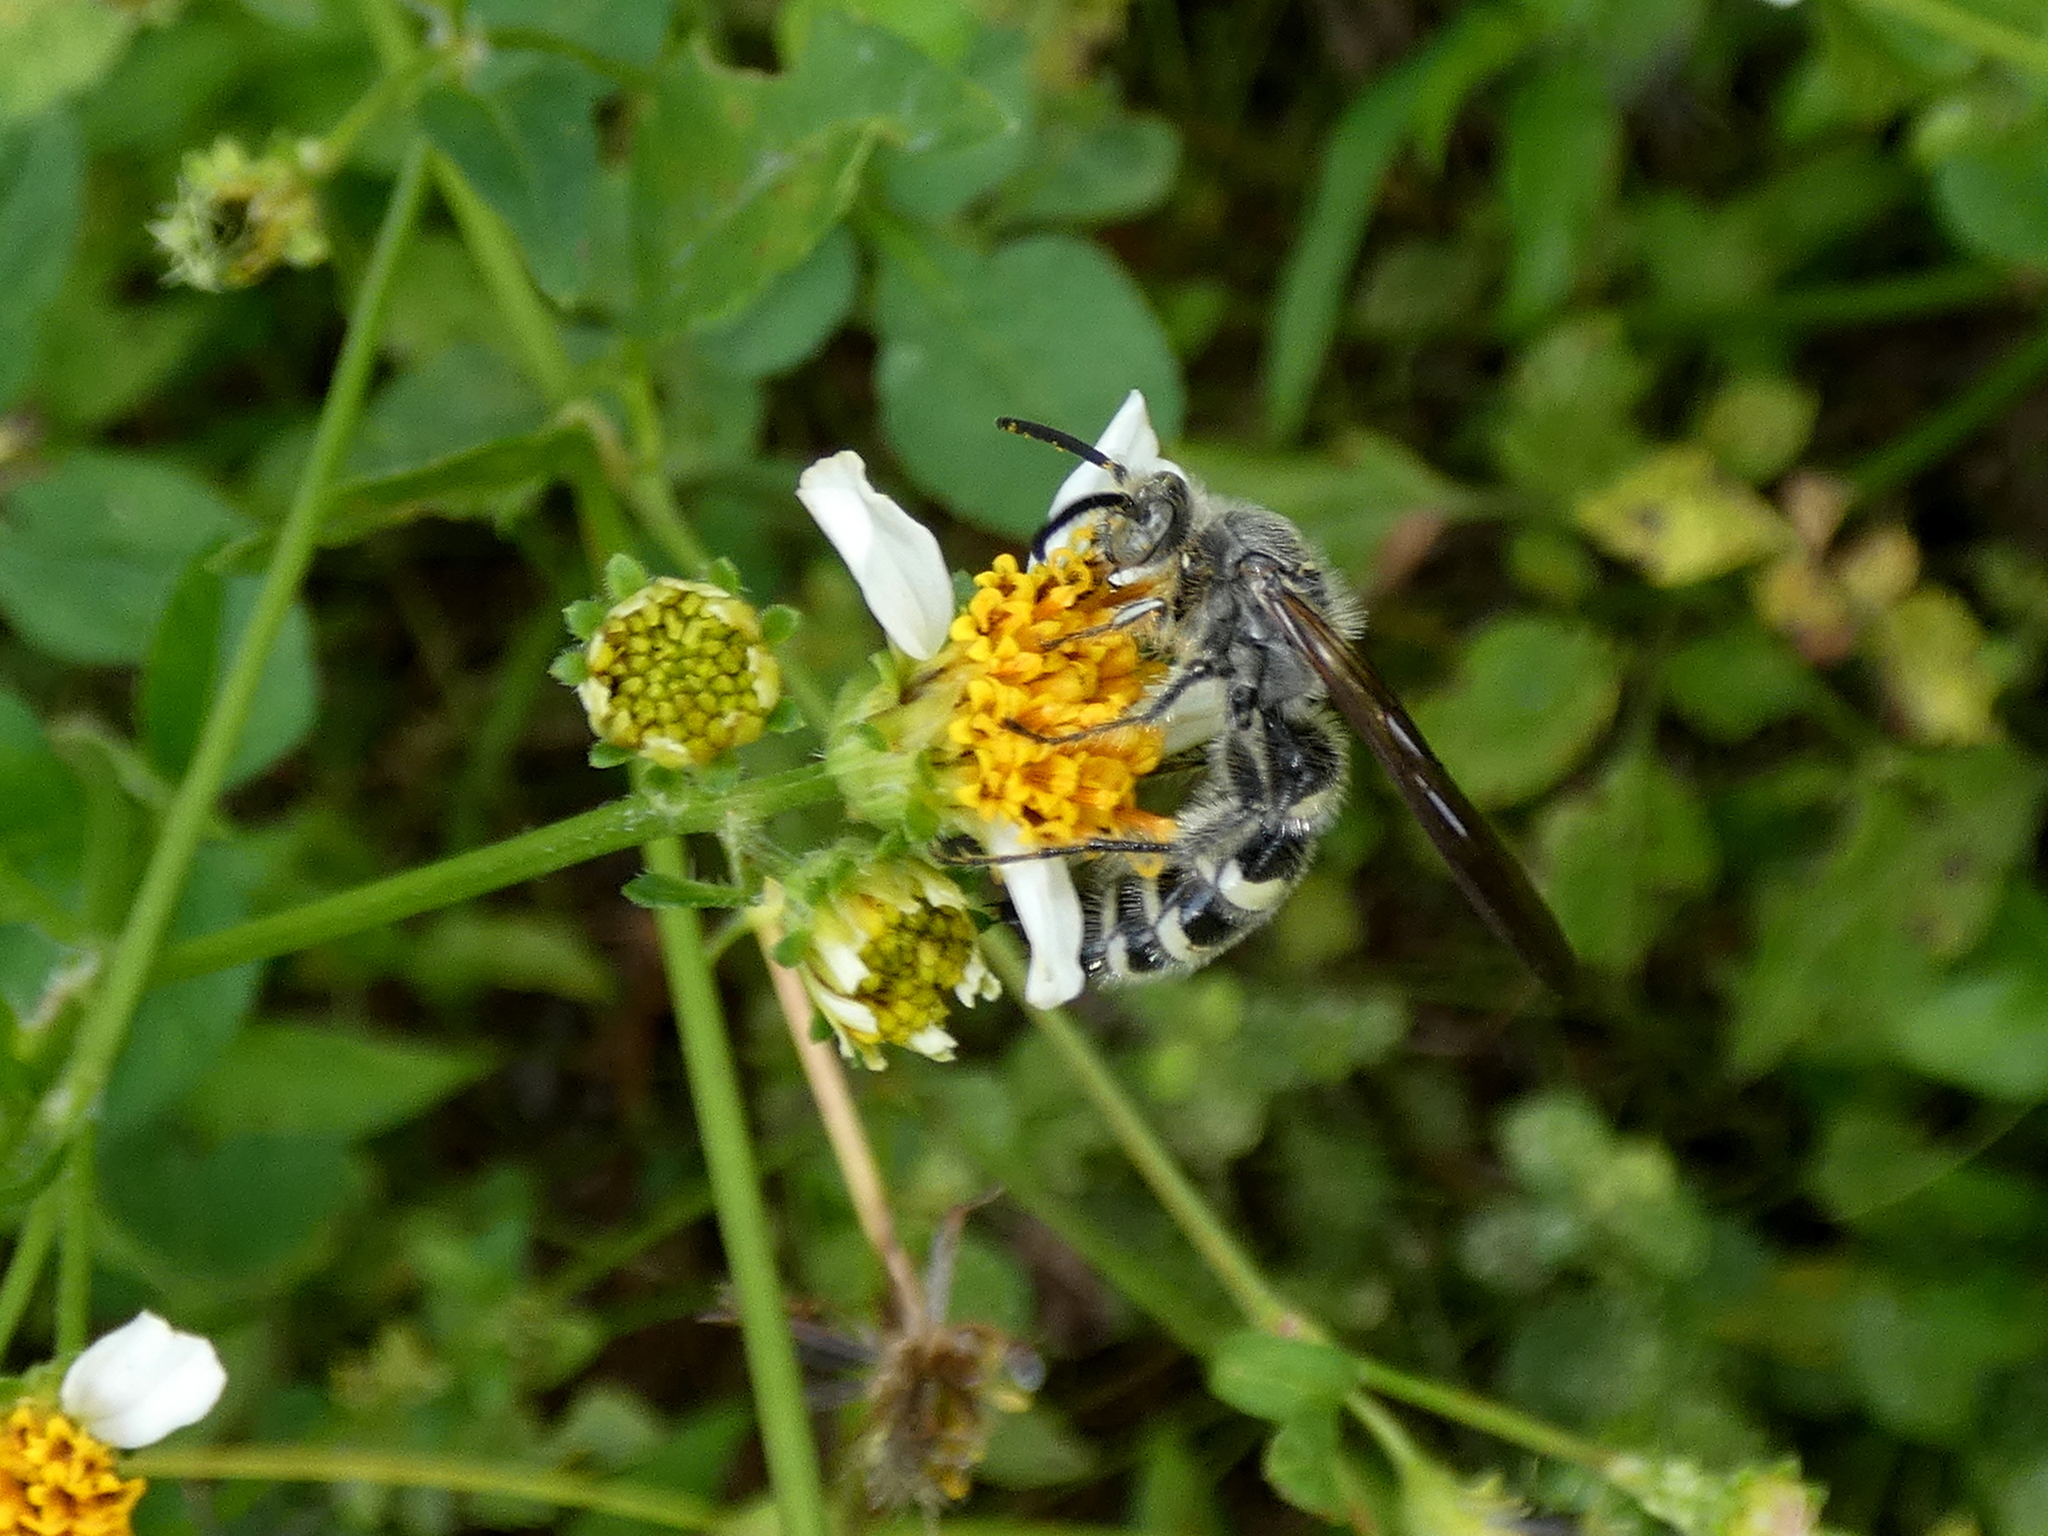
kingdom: Animalia
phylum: Arthropoda
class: Insecta
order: Hymenoptera
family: Scoliidae
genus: Dielis
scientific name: Dielis
